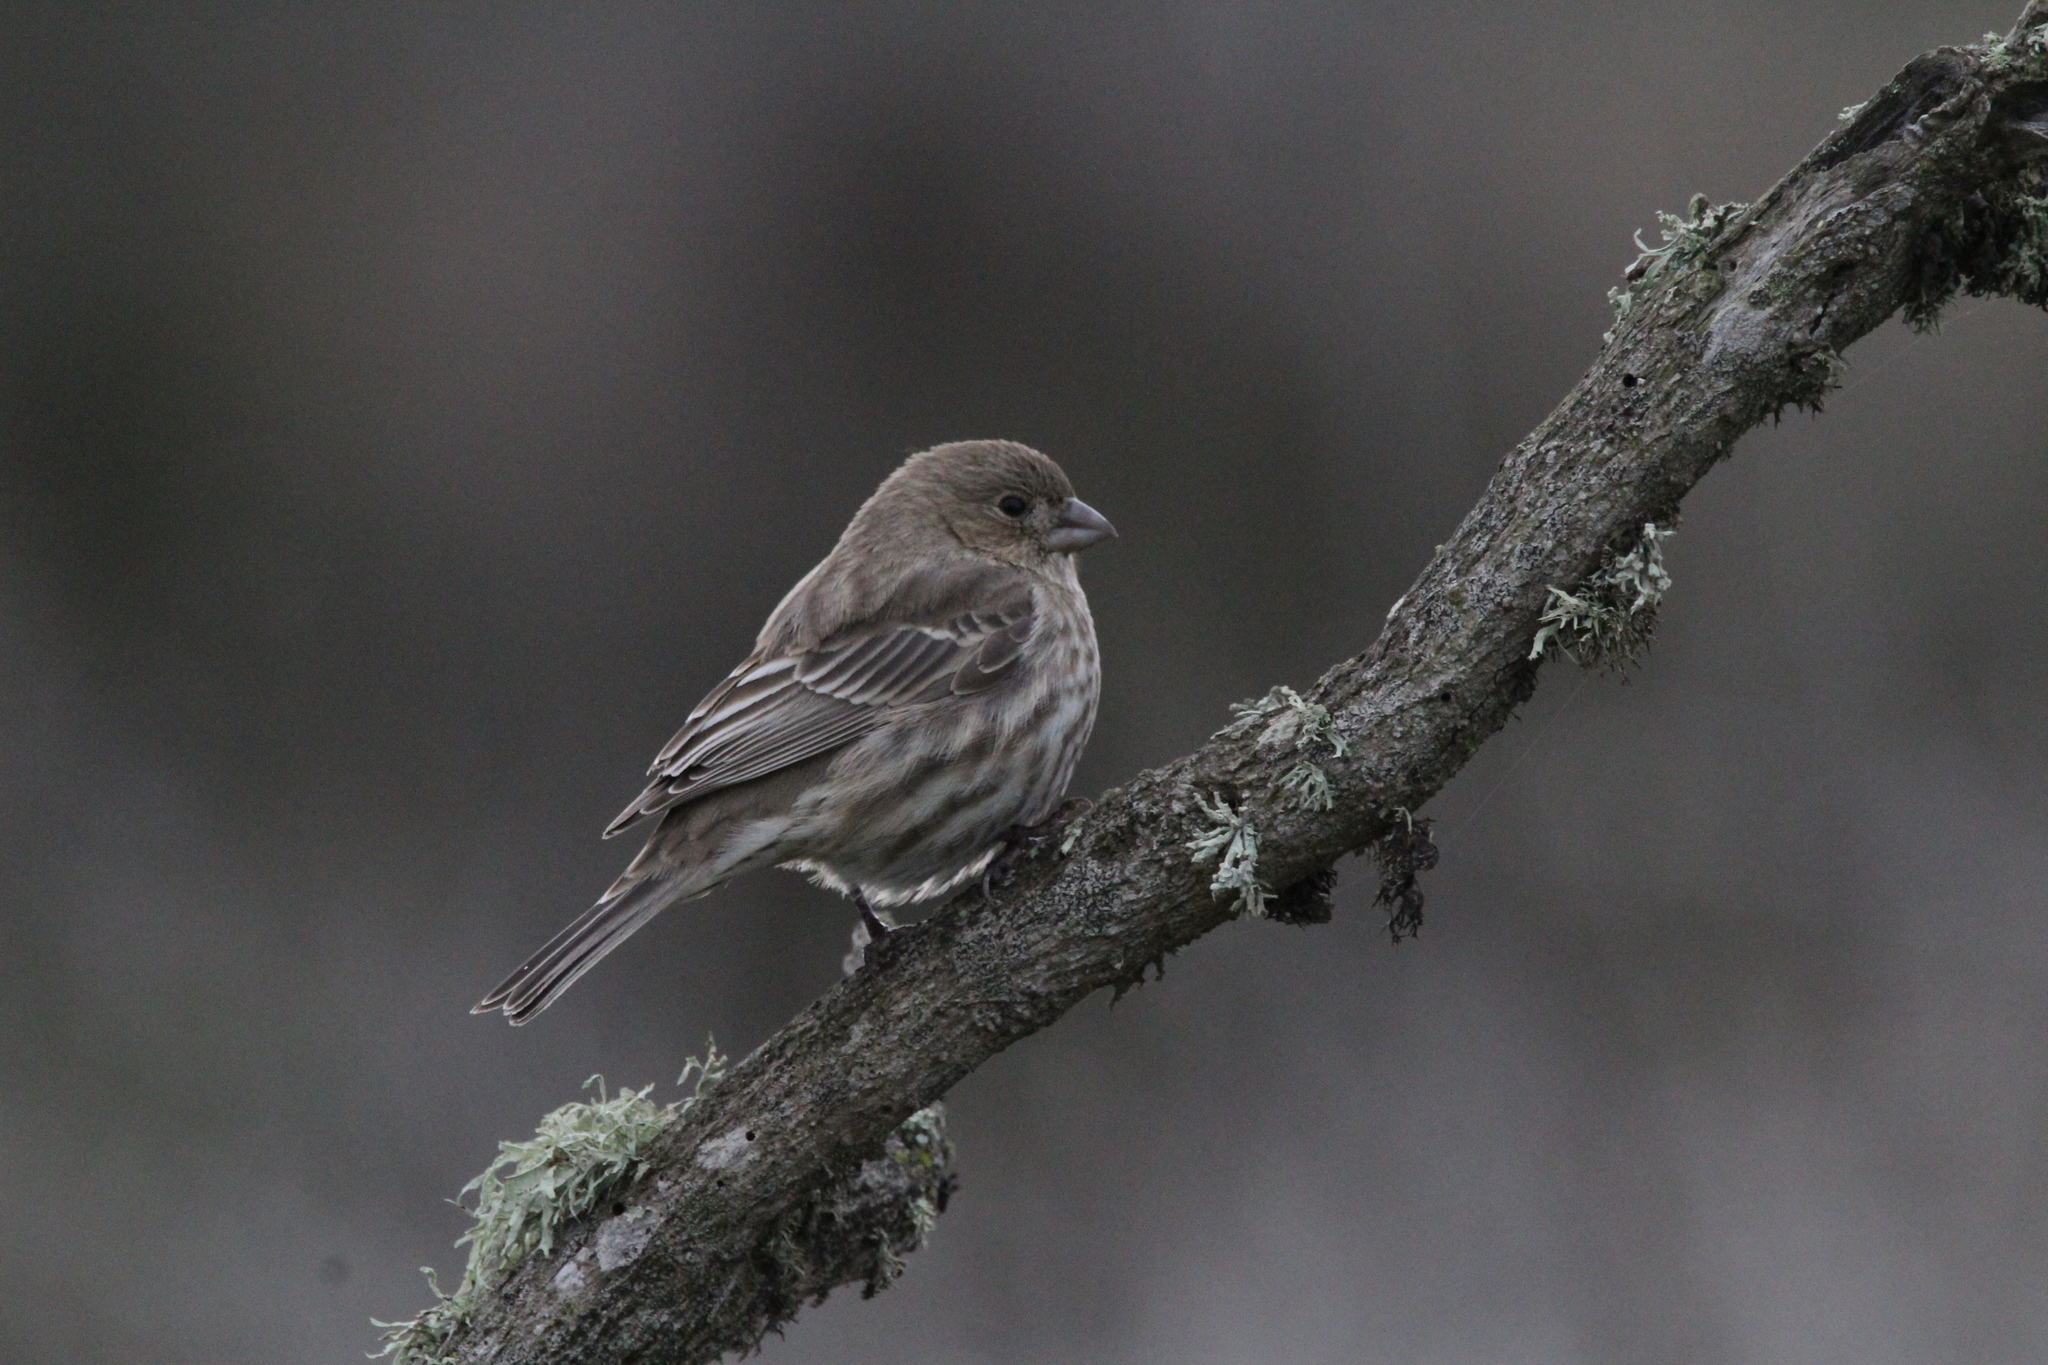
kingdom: Animalia
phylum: Chordata
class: Aves
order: Passeriformes
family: Fringillidae
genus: Haemorhous
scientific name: Haemorhous mexicanus
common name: House finch
